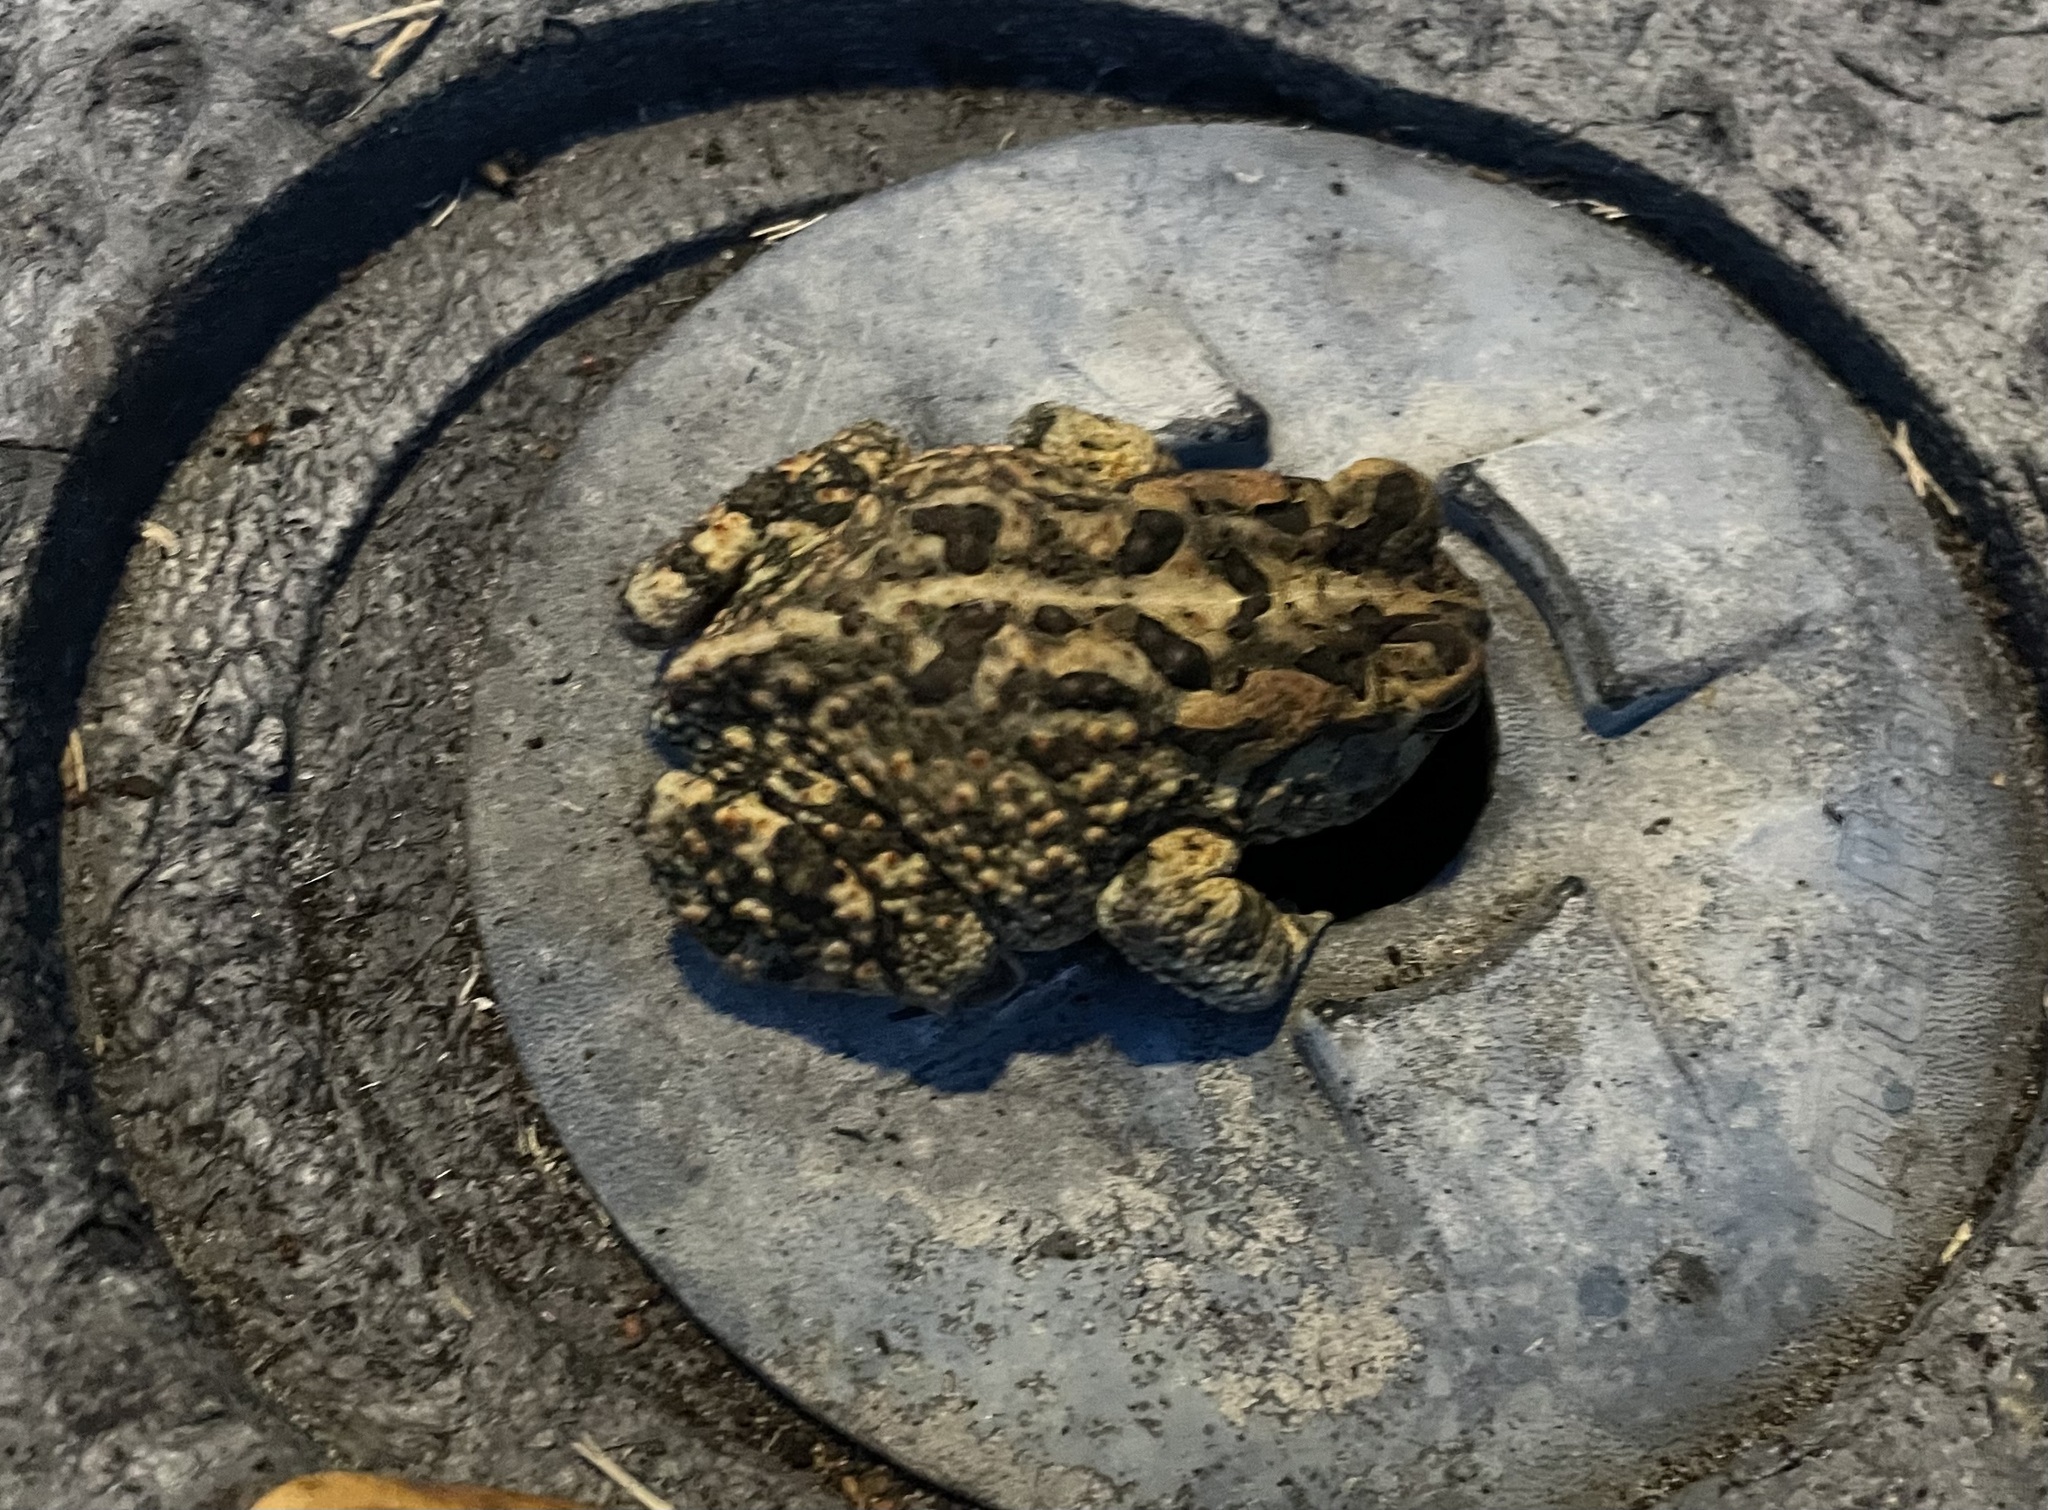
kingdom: Animalia
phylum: Chordata
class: Amphibia
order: Anura
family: Bufonidae
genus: Anaxyrus
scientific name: Anaxyrus terrestris
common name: Southern toad
